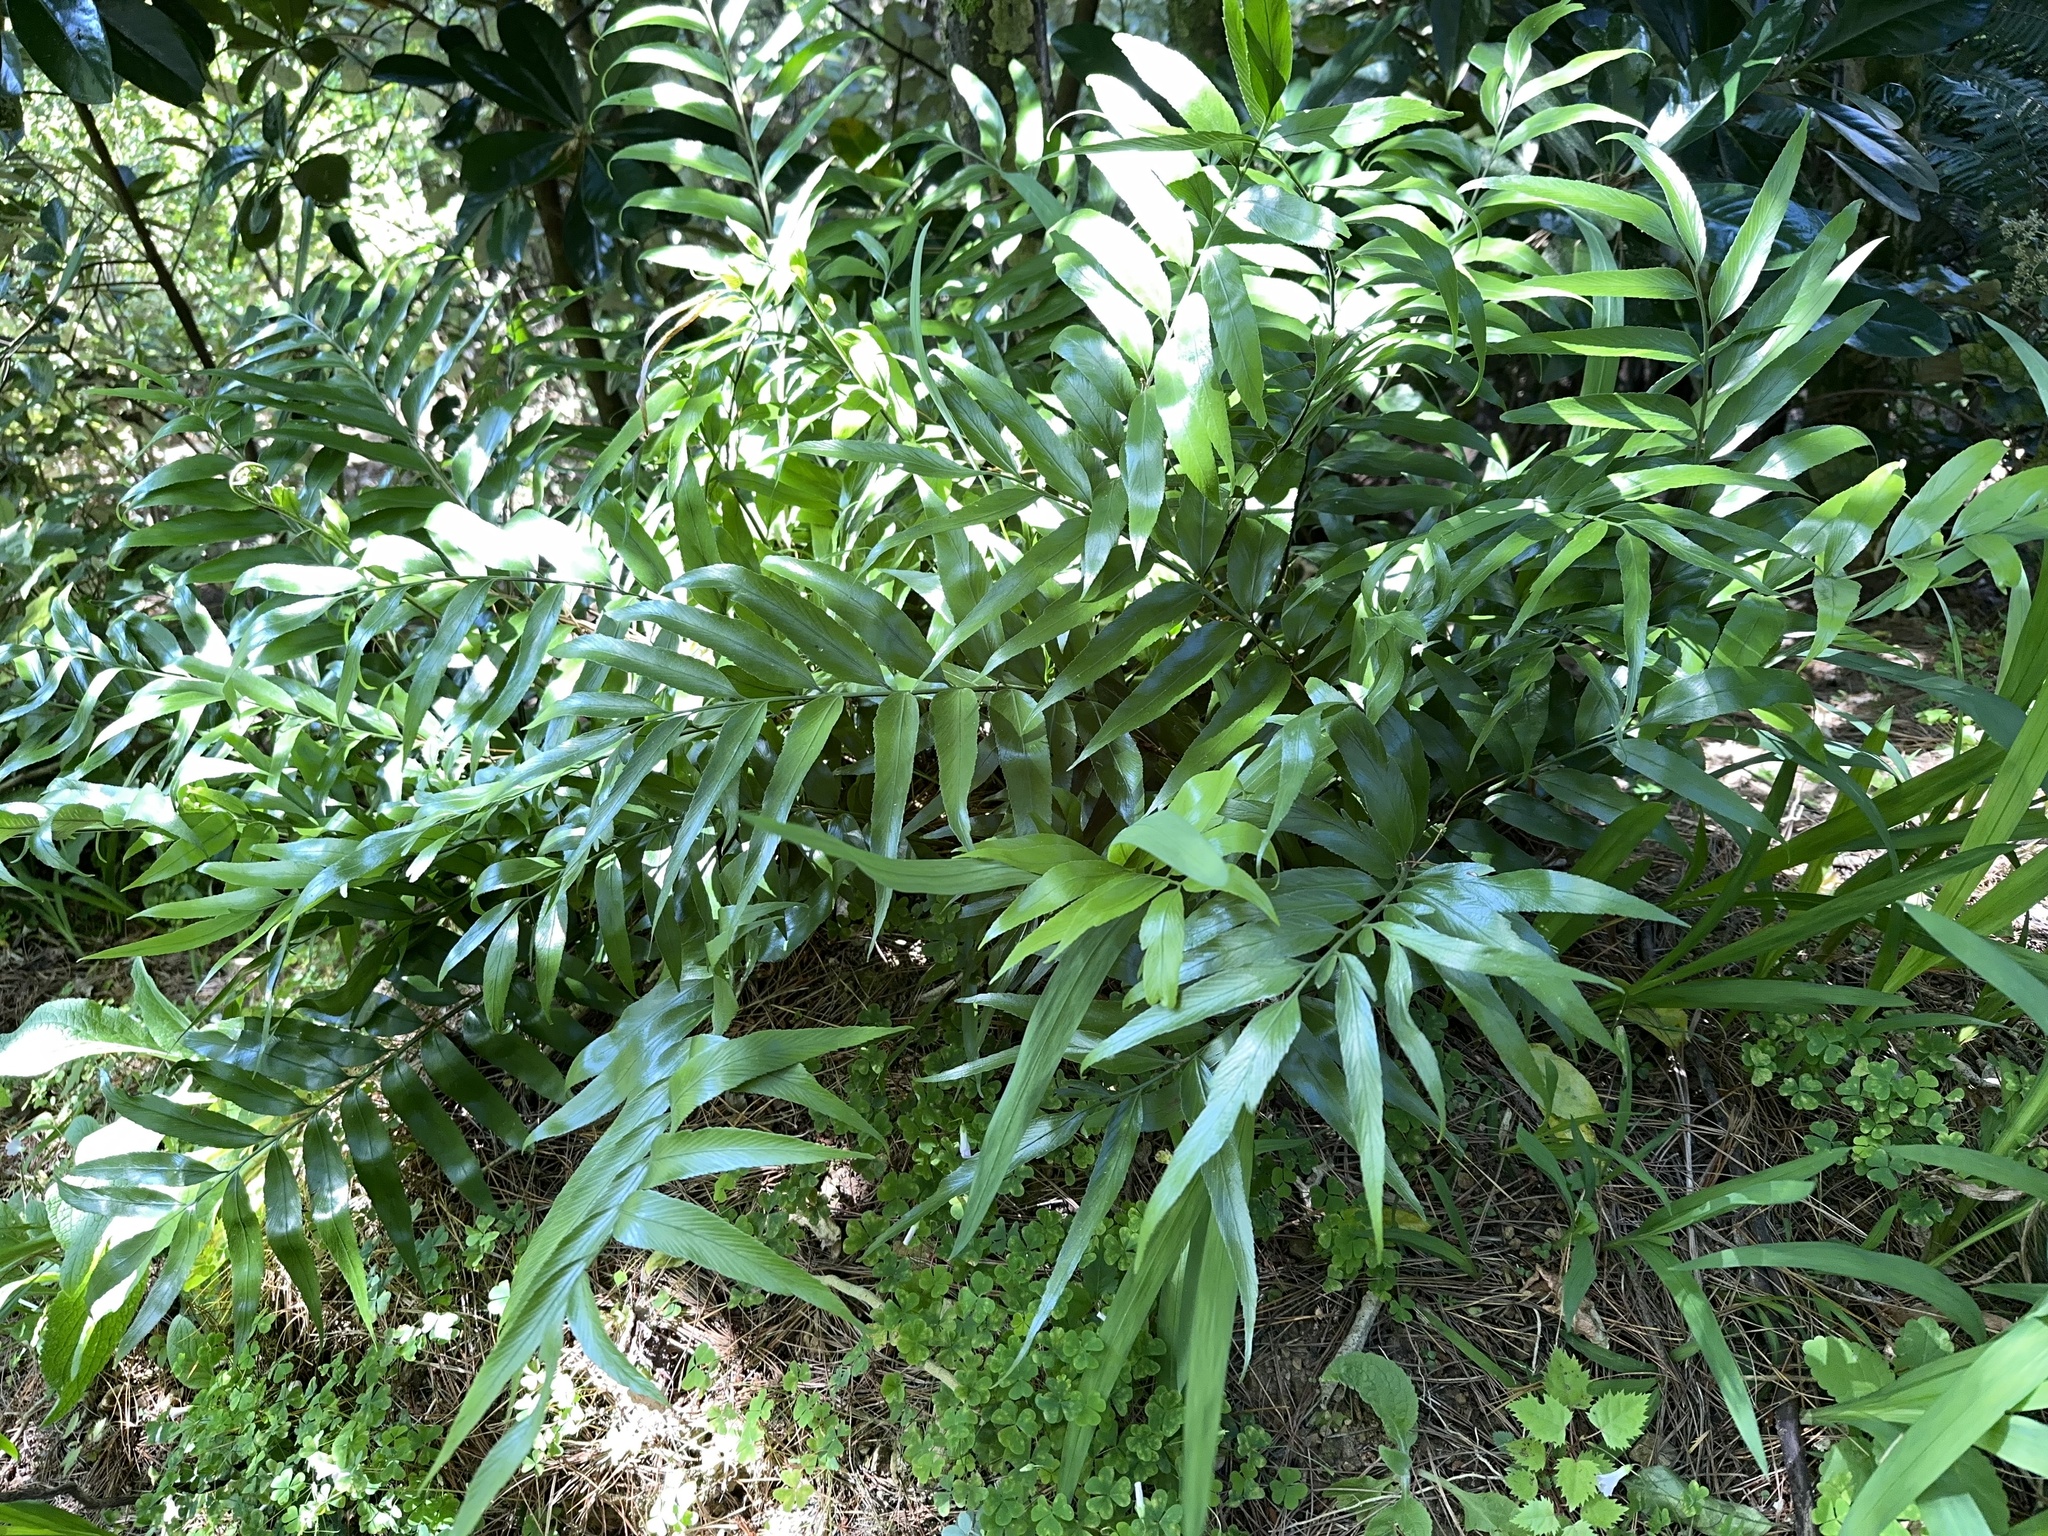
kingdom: Plantae
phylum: Tracheophyta
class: Polypodiopsida
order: Polypodiales
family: Aspleniaceae
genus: Asplenium
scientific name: Asplenium oblongifolium
